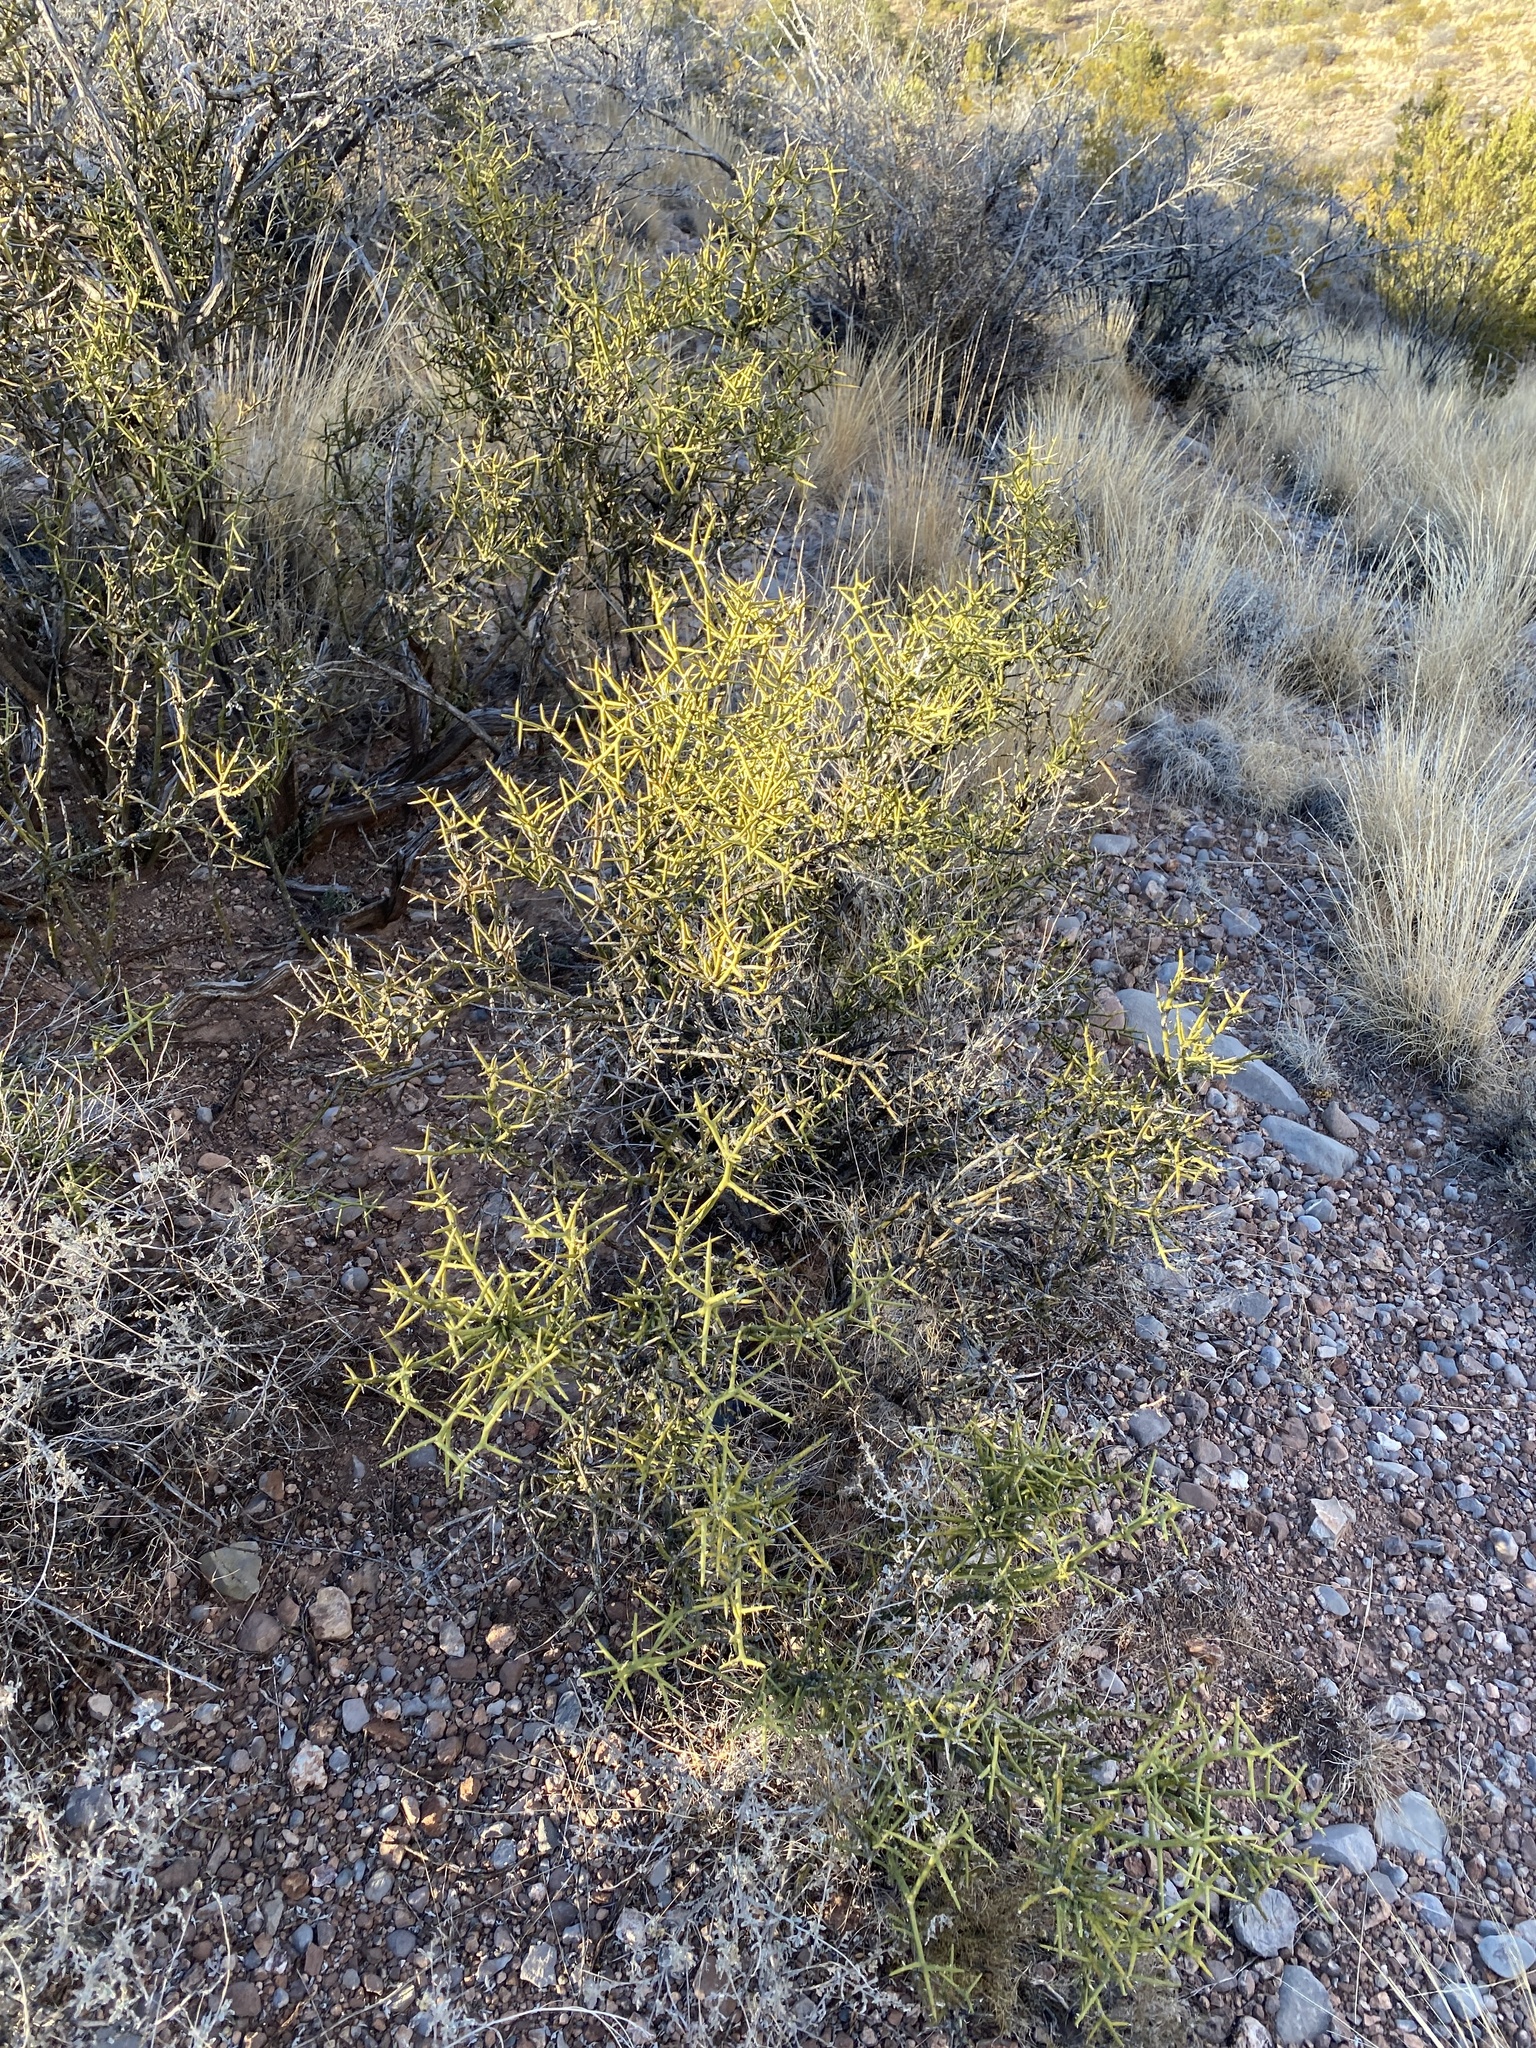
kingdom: Plantae
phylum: Tracheophyta
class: Magnoliopsida
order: Brassicales
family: Koeberliniaceae
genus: Koeberlinia
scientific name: Koeberlinia spinosa
